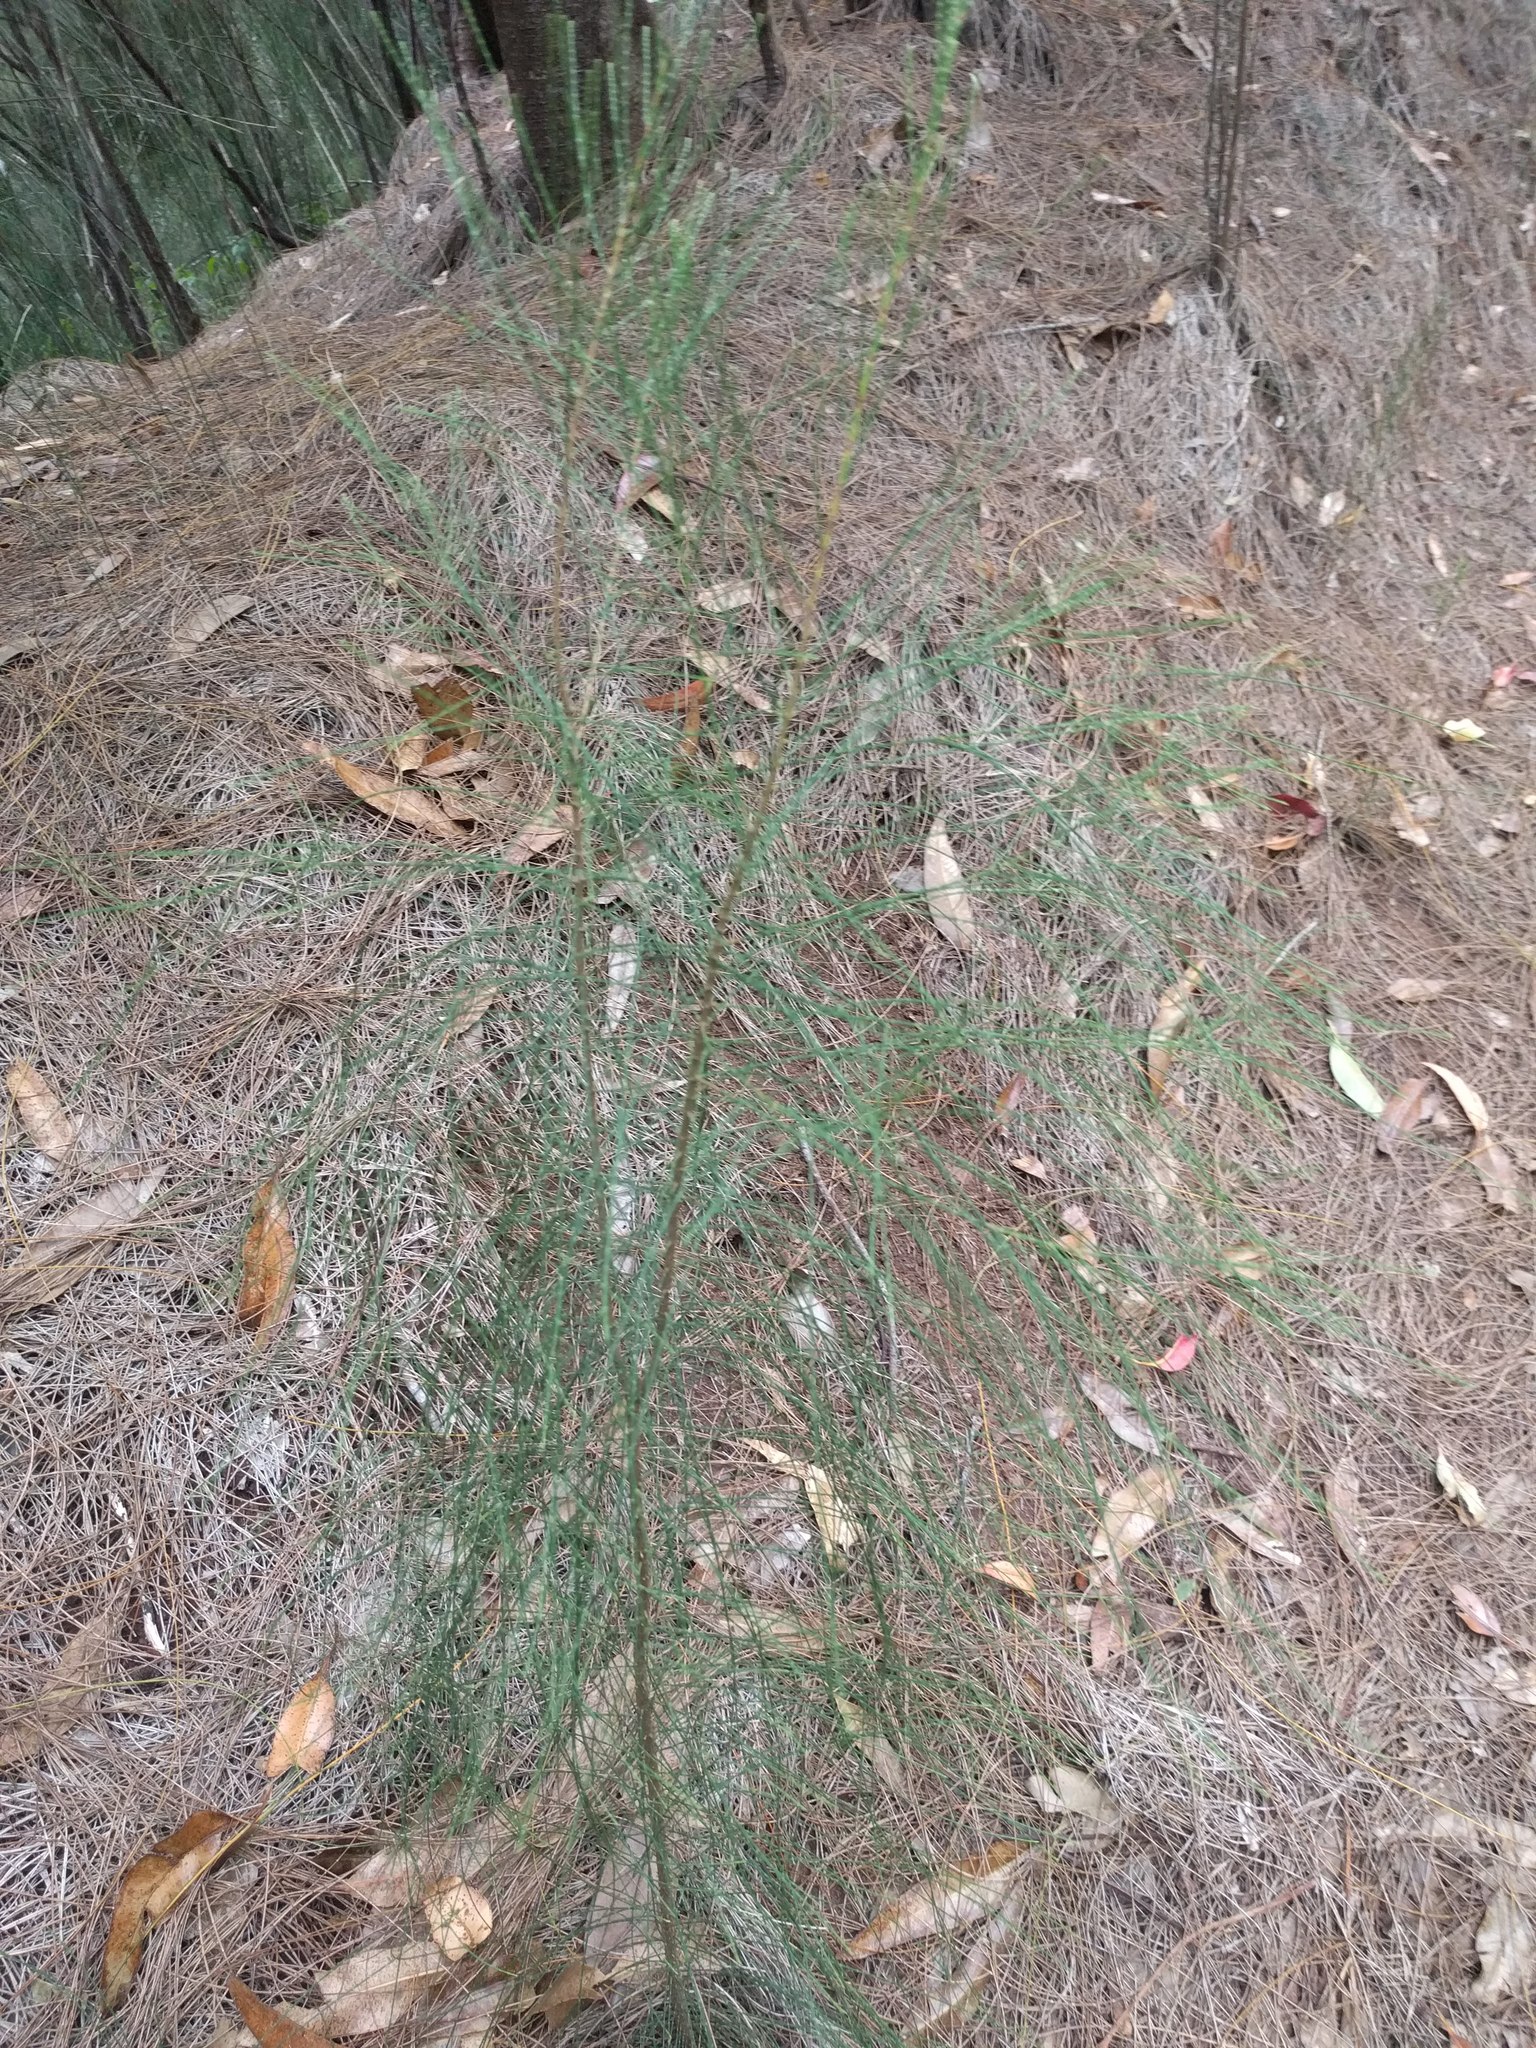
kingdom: Plantae
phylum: Tracheophyta
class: Magnoliopsida
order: Fagales
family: Casuarinaceae
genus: Casuarina
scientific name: Casuarina equisetifolia
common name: Beach sheoak
